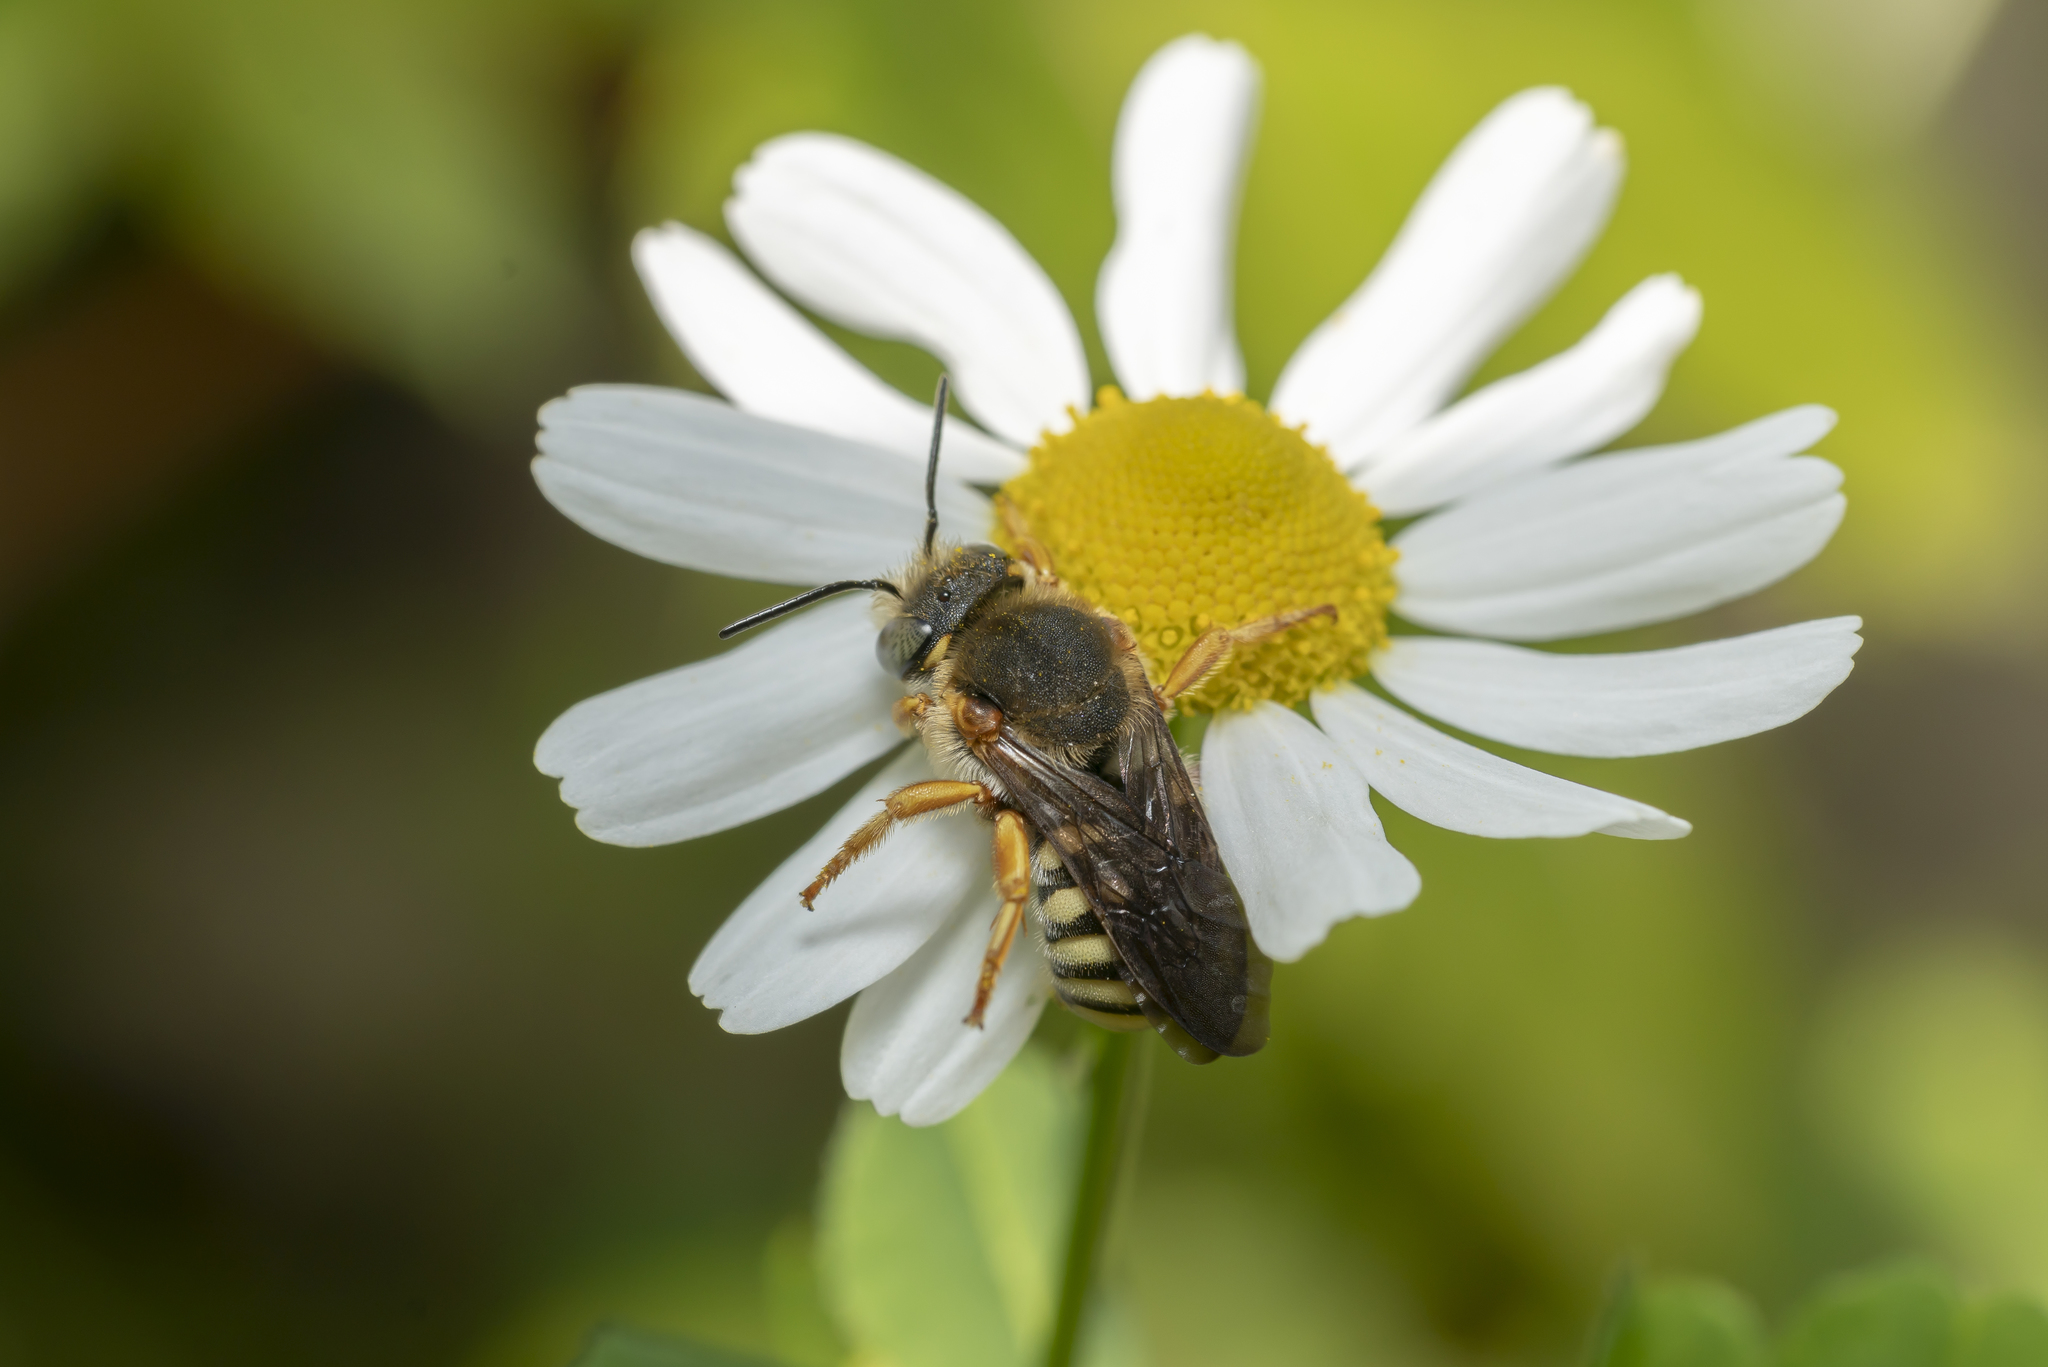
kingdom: Animalia
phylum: Arthropoda
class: Insecta
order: Hymenoptera
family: Megachilidae
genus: Rhodanthidium
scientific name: Rhodanthidium septemdentatum
